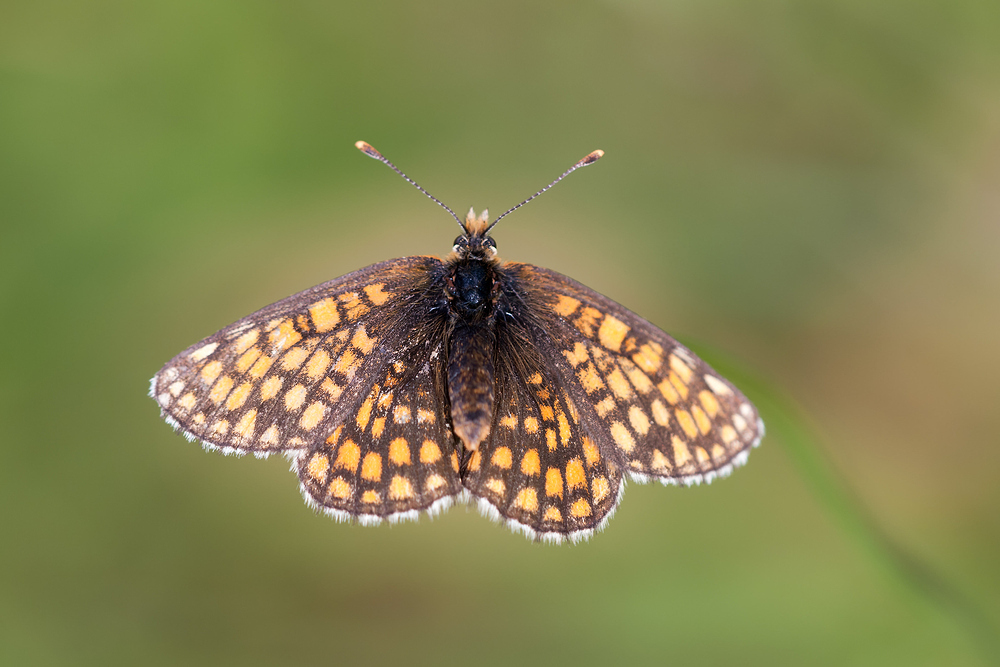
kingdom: Animalia
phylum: Arthropoda
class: Insecta
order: Lepidoptera
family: Nymphalidae
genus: Mellicta
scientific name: Mellicta aurelia
